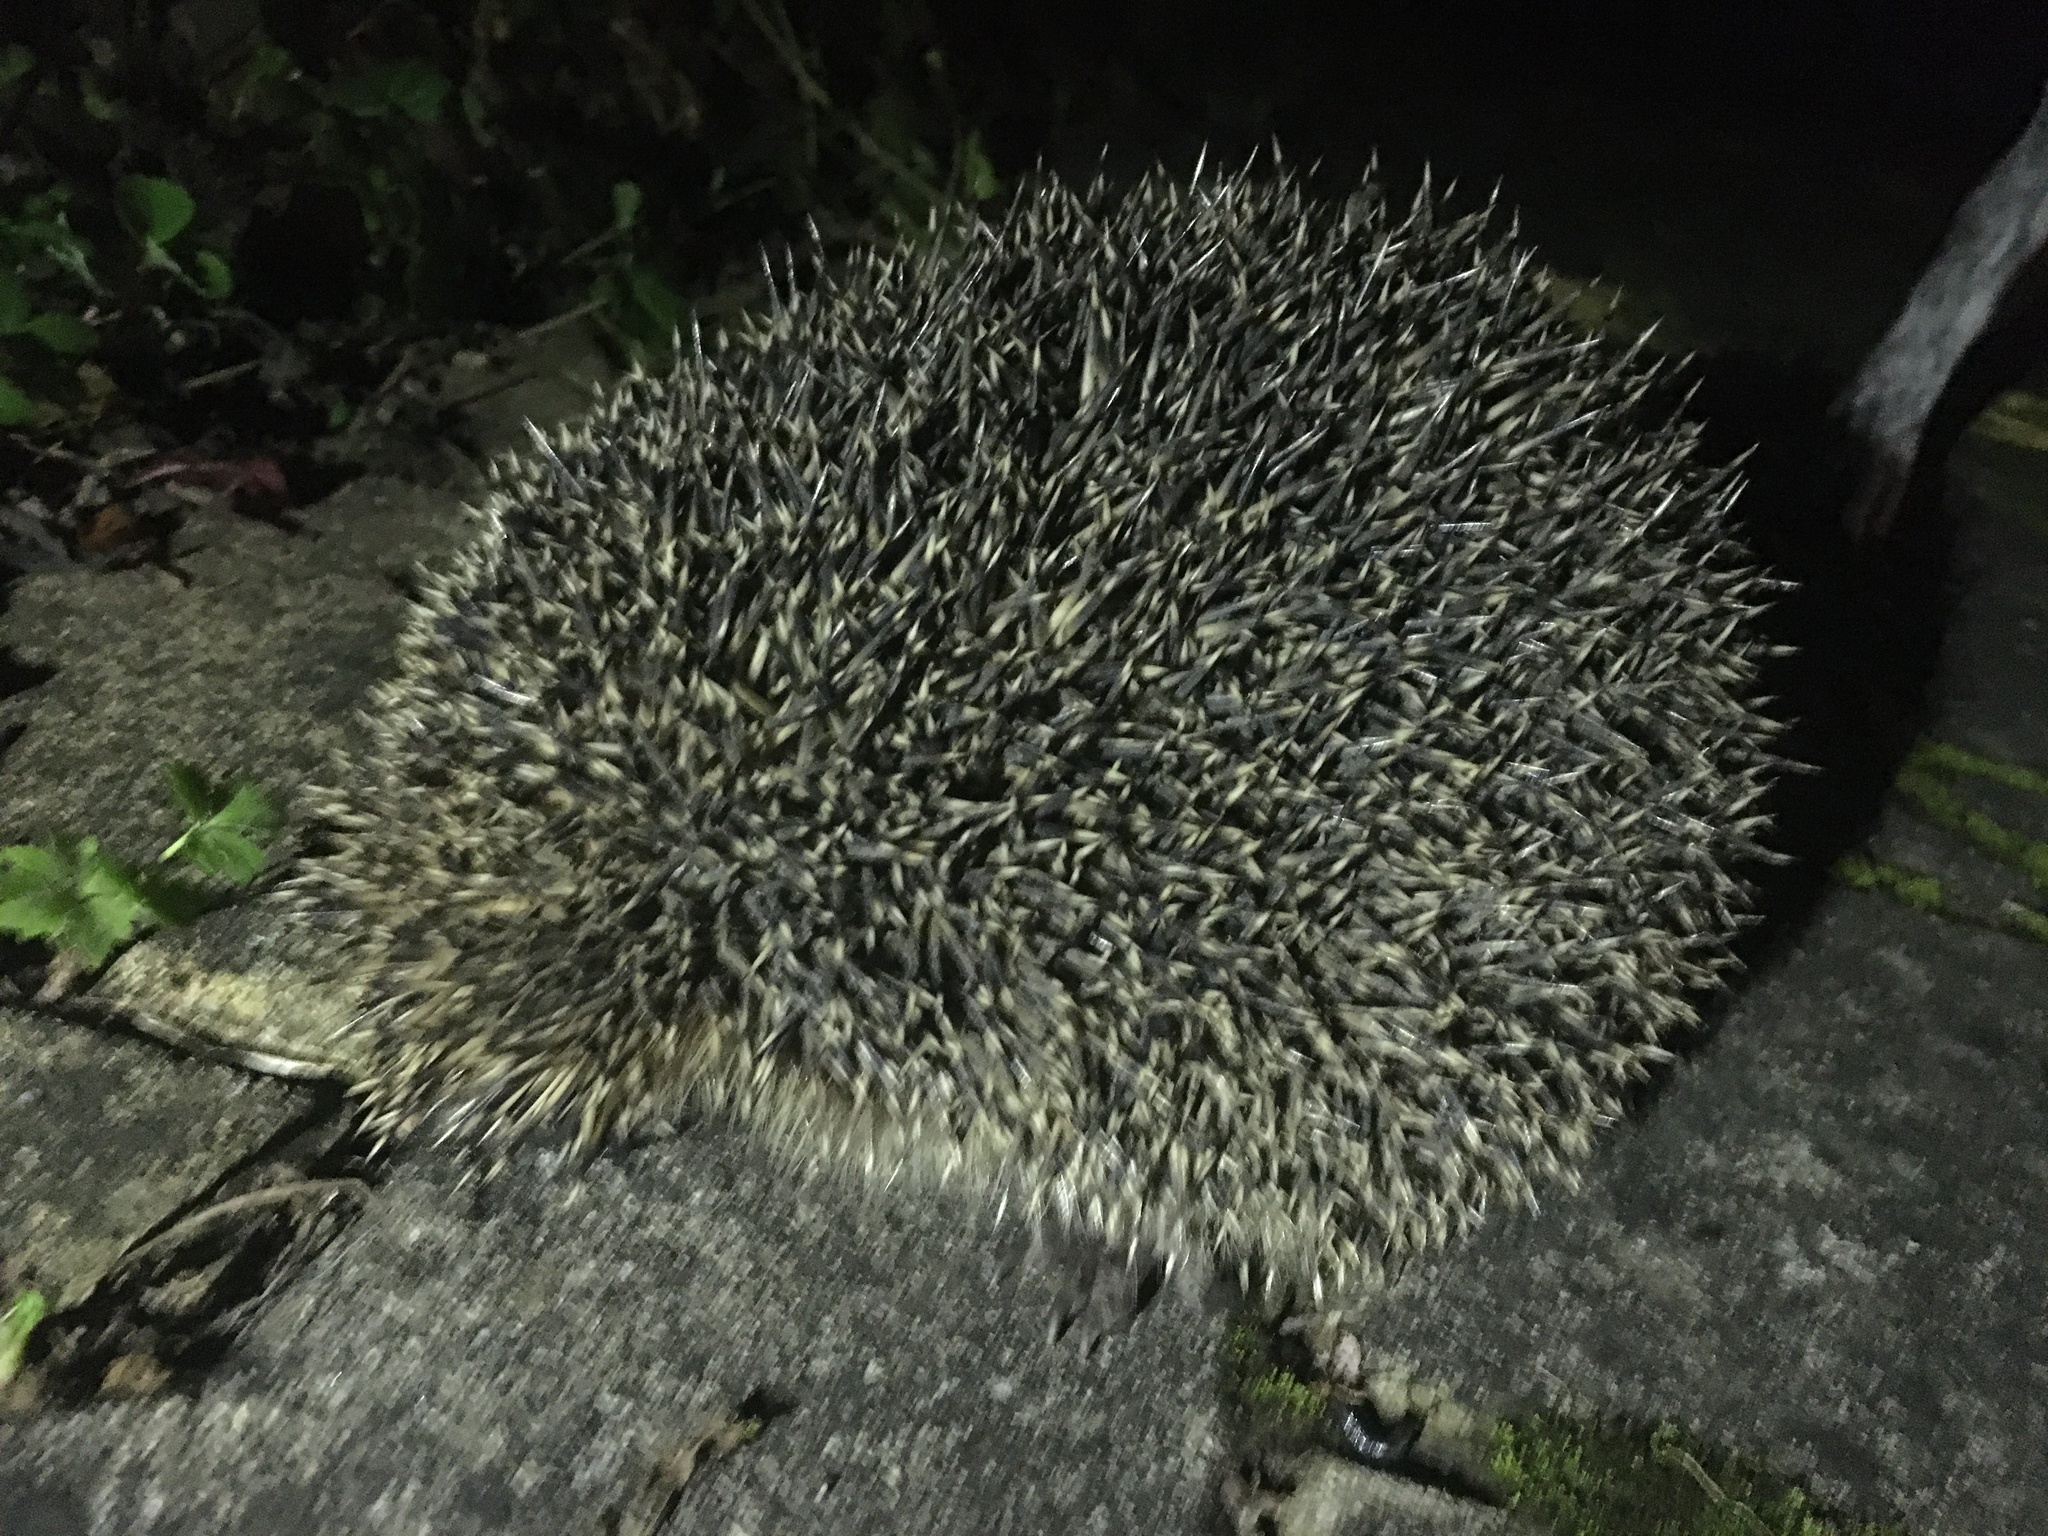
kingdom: Animalia
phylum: Chordata
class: Mammalia
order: Erinaceomorpha
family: Erinaceidae
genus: Erinaceus
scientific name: Erinaceus europaeus
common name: West european hedgehog
